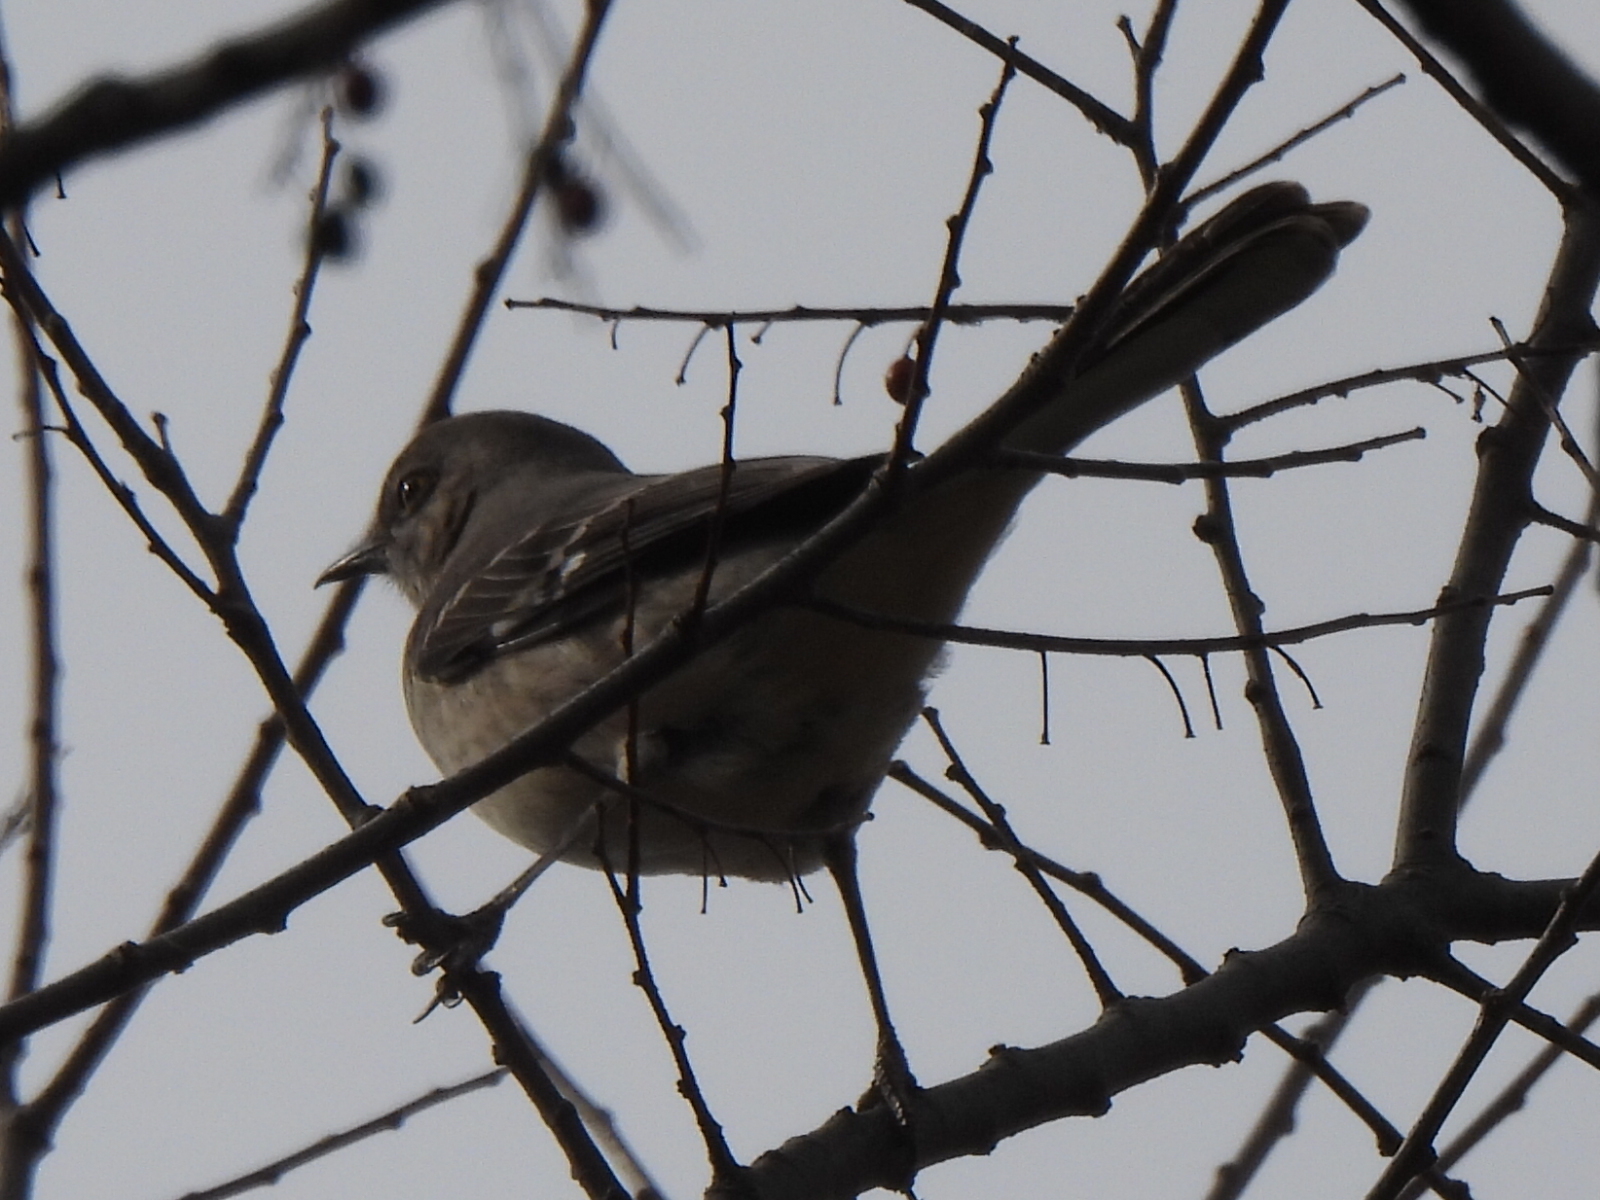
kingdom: Animalia
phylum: Chordata
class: Aves
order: Passeriformes
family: Mimidae
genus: Mimus
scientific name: Mimus polyglottos
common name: Northern mockingbird
